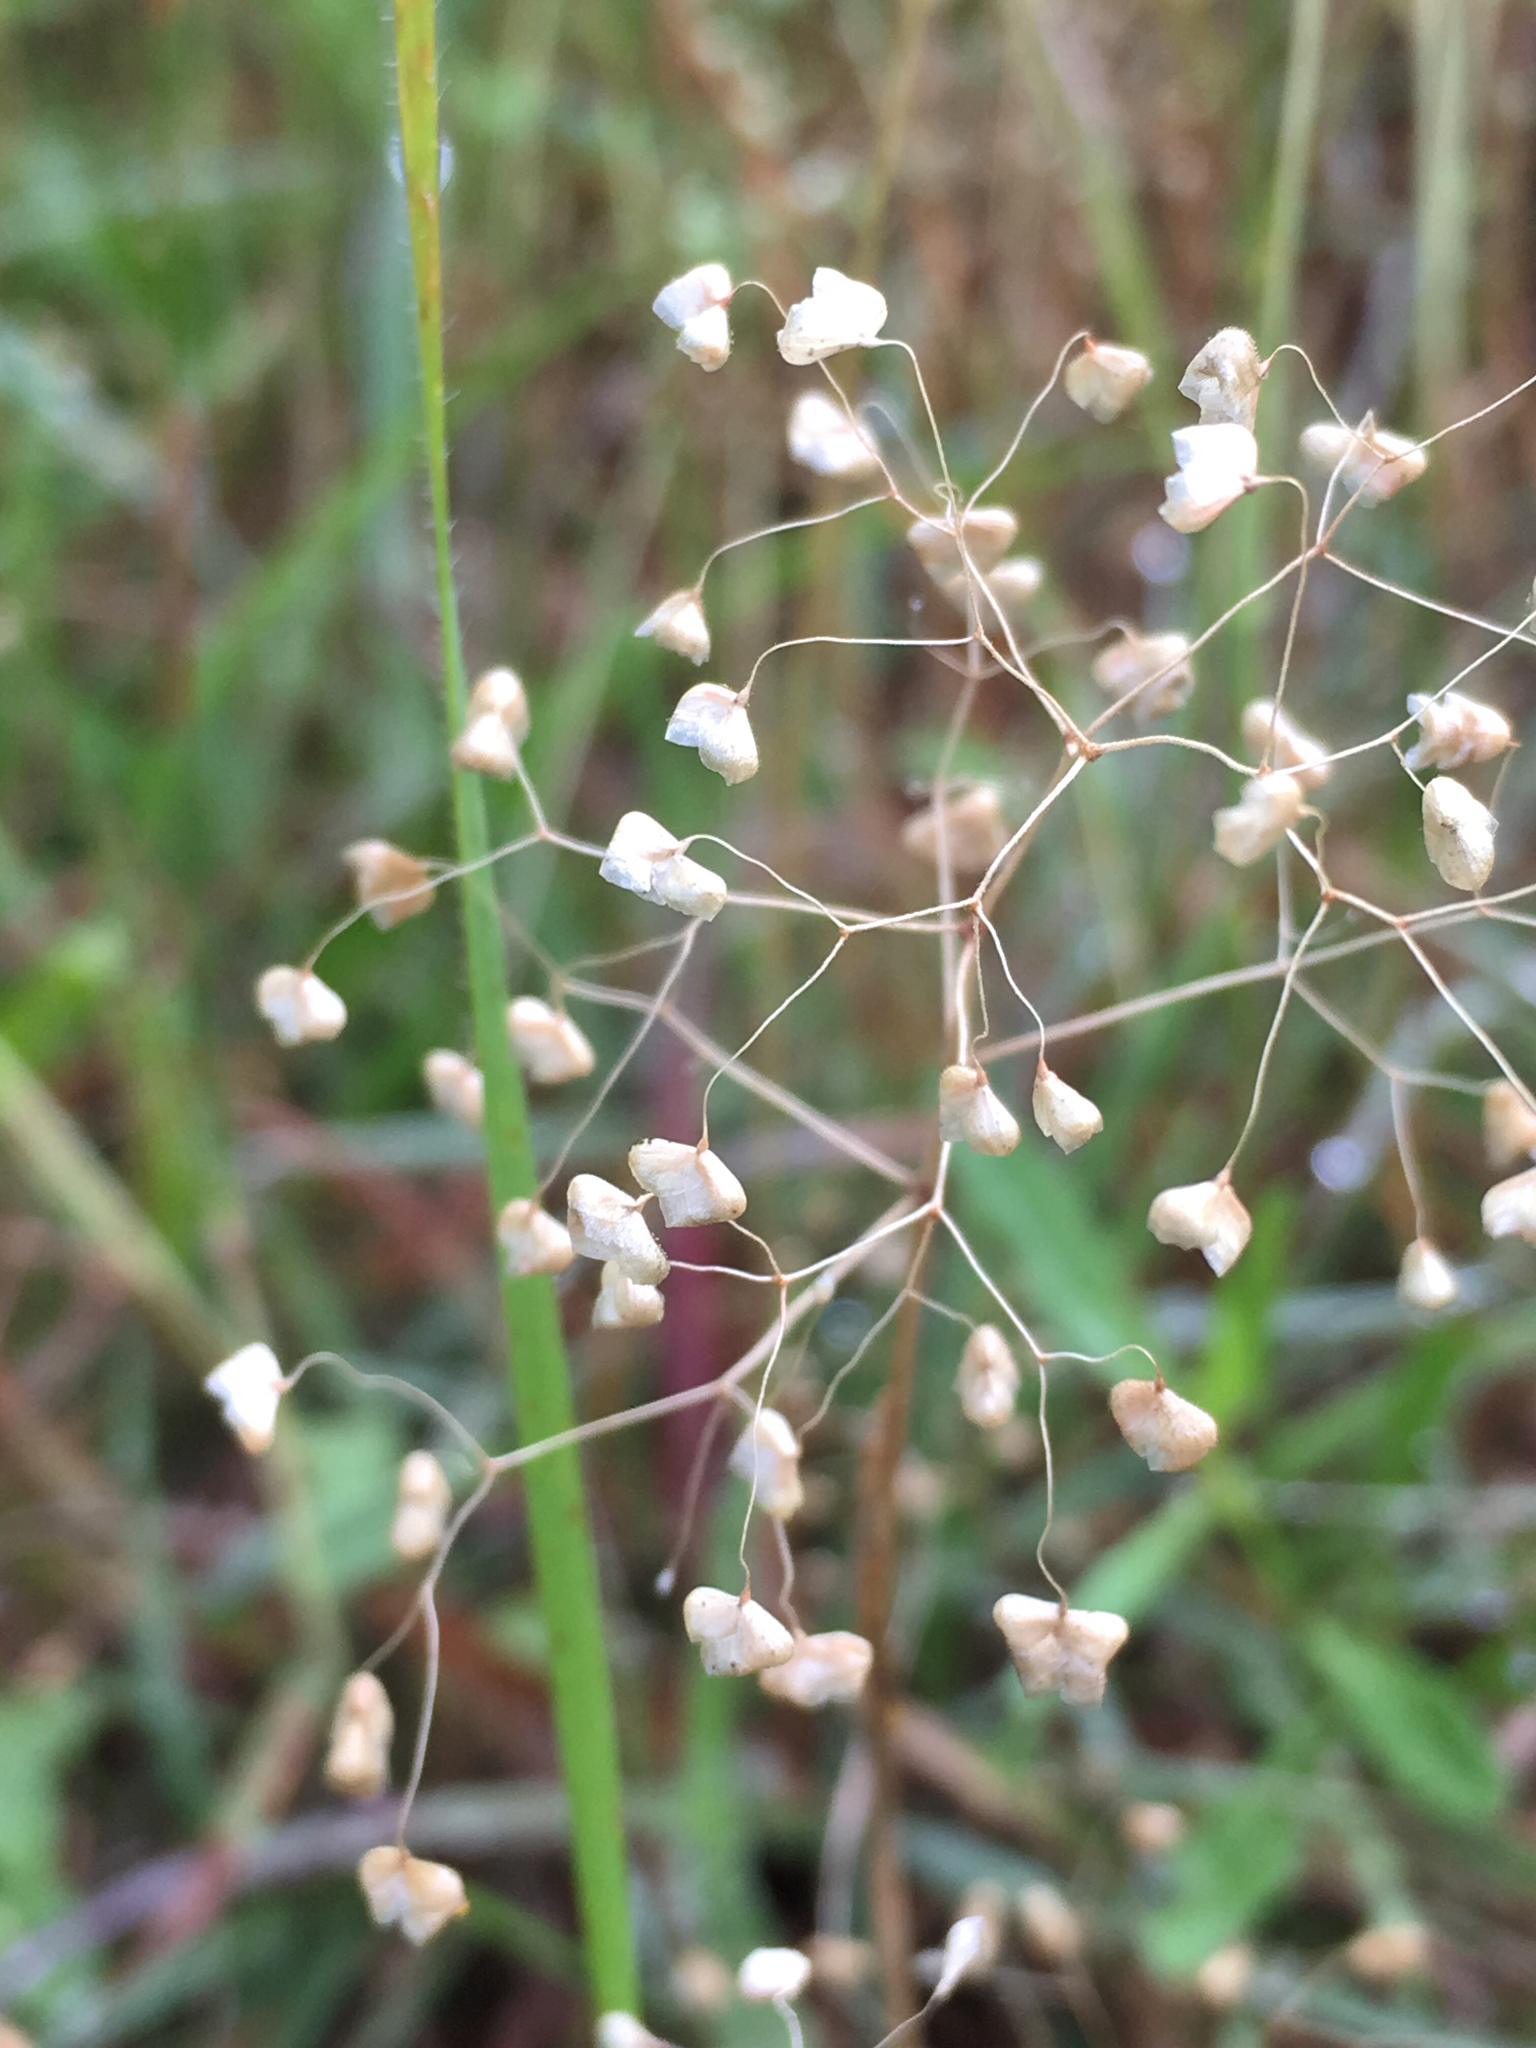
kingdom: Plantae
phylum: Tracheophyta
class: Liliopsida
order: Poales
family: Poaceae
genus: Briza
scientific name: Briza minor
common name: Lesser quaking-grass
